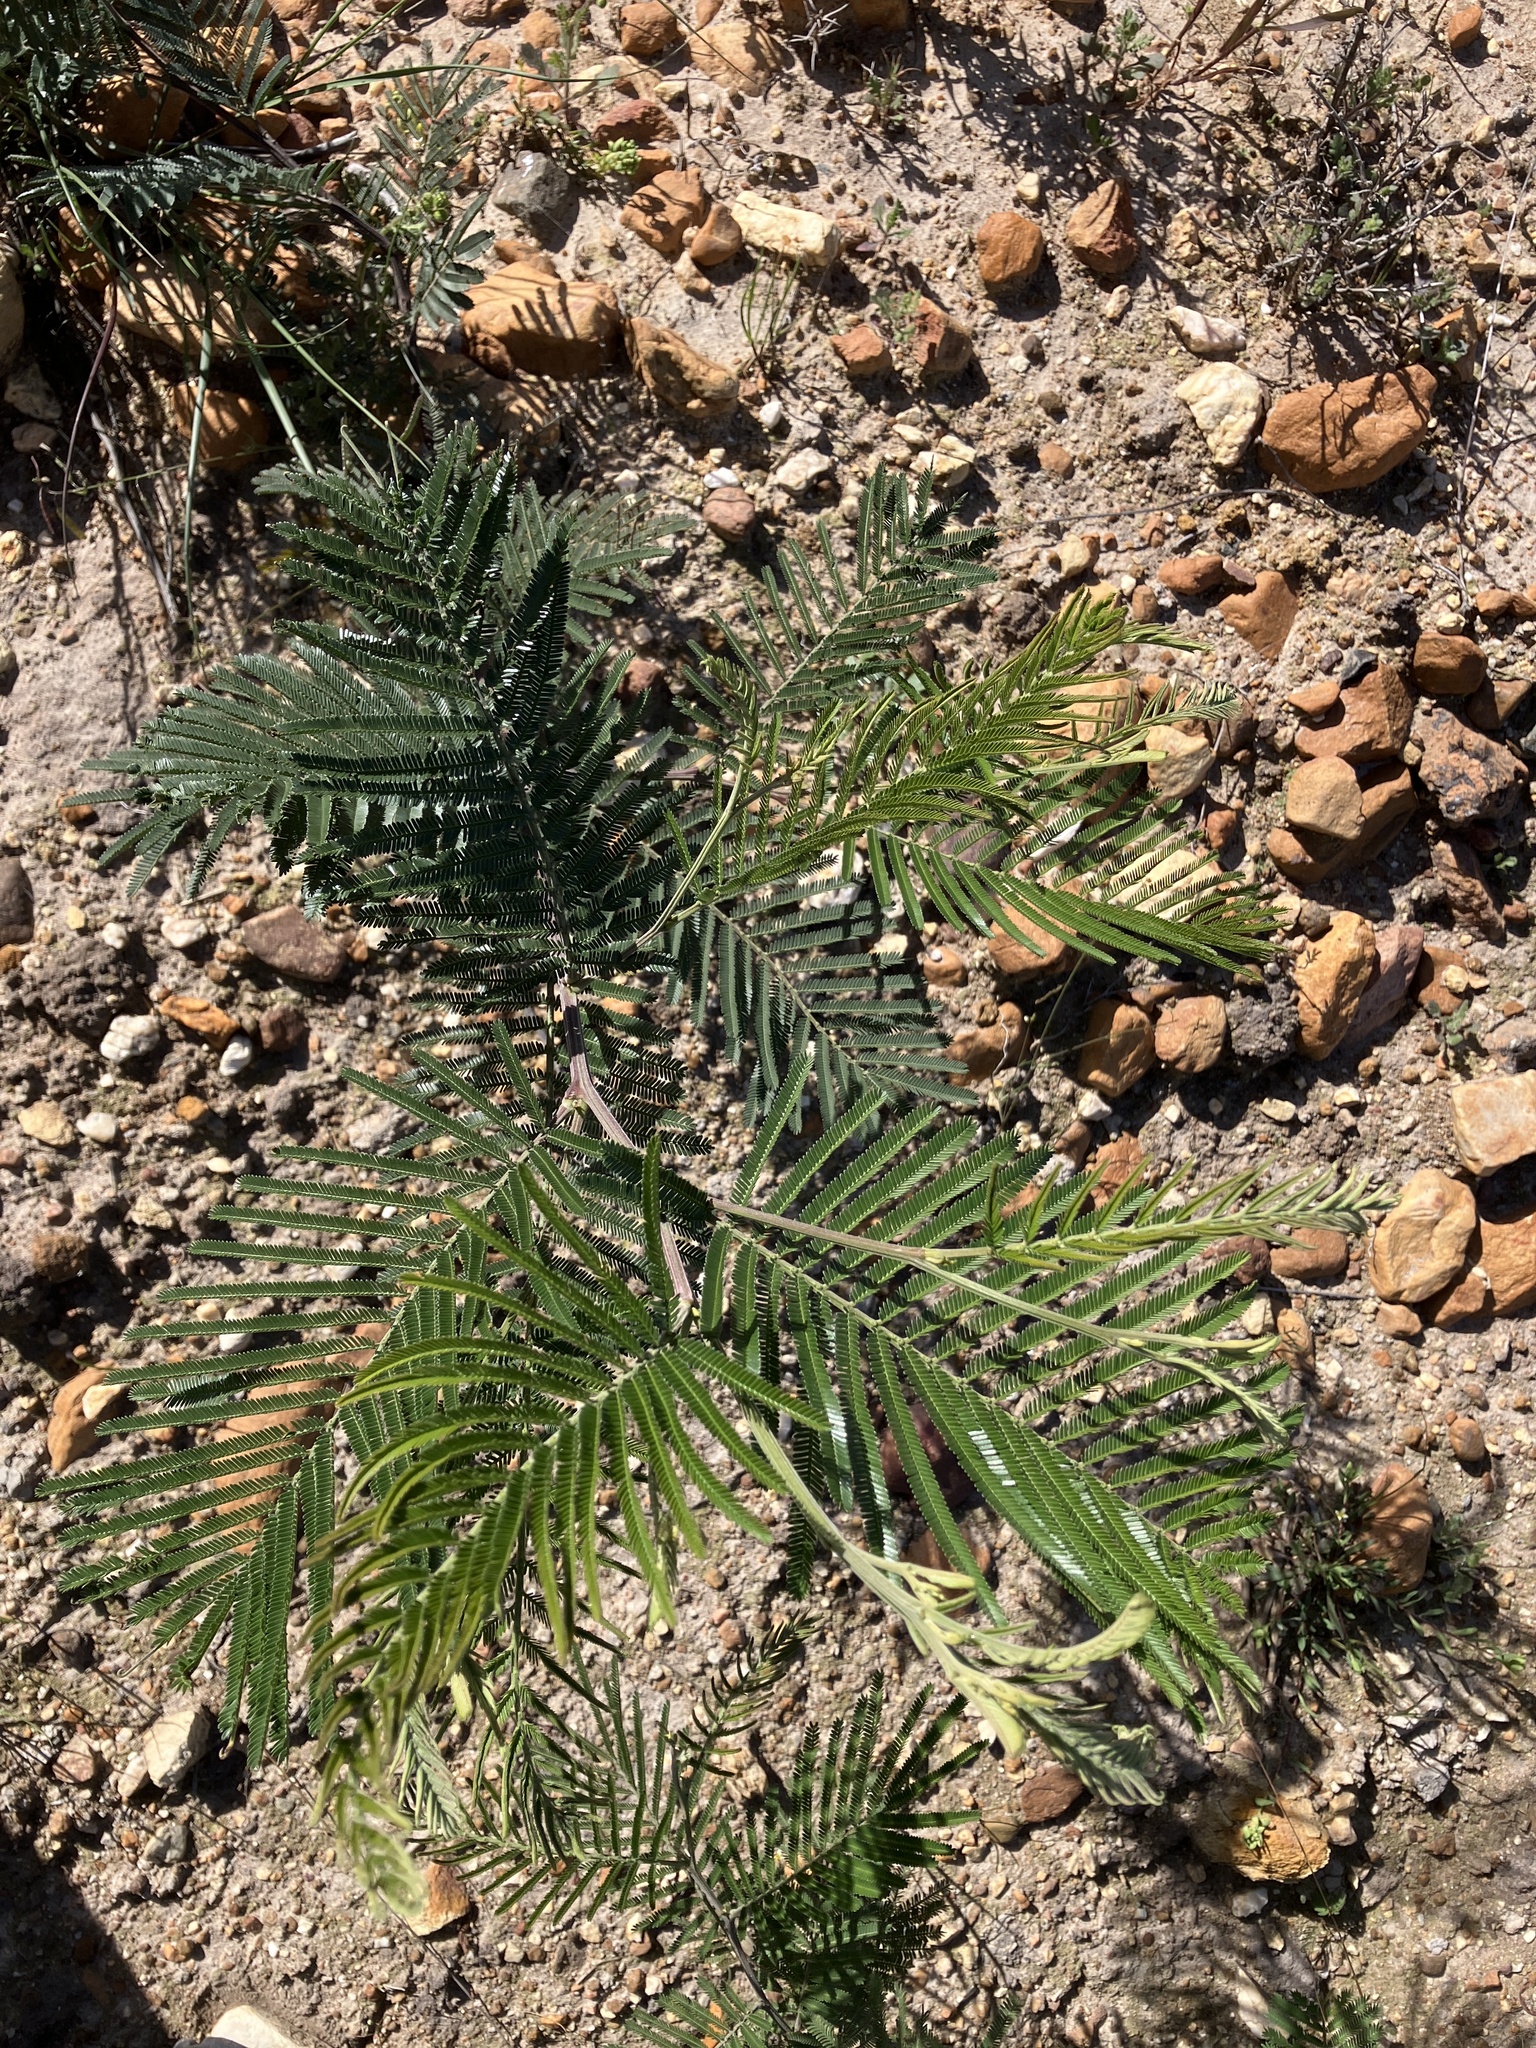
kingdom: Plantae
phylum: Tracheophyta
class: Magnoliopsida
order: Fabales
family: Fabaceae
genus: Acacia
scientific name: Acacia mearnsii
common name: Black wattle
